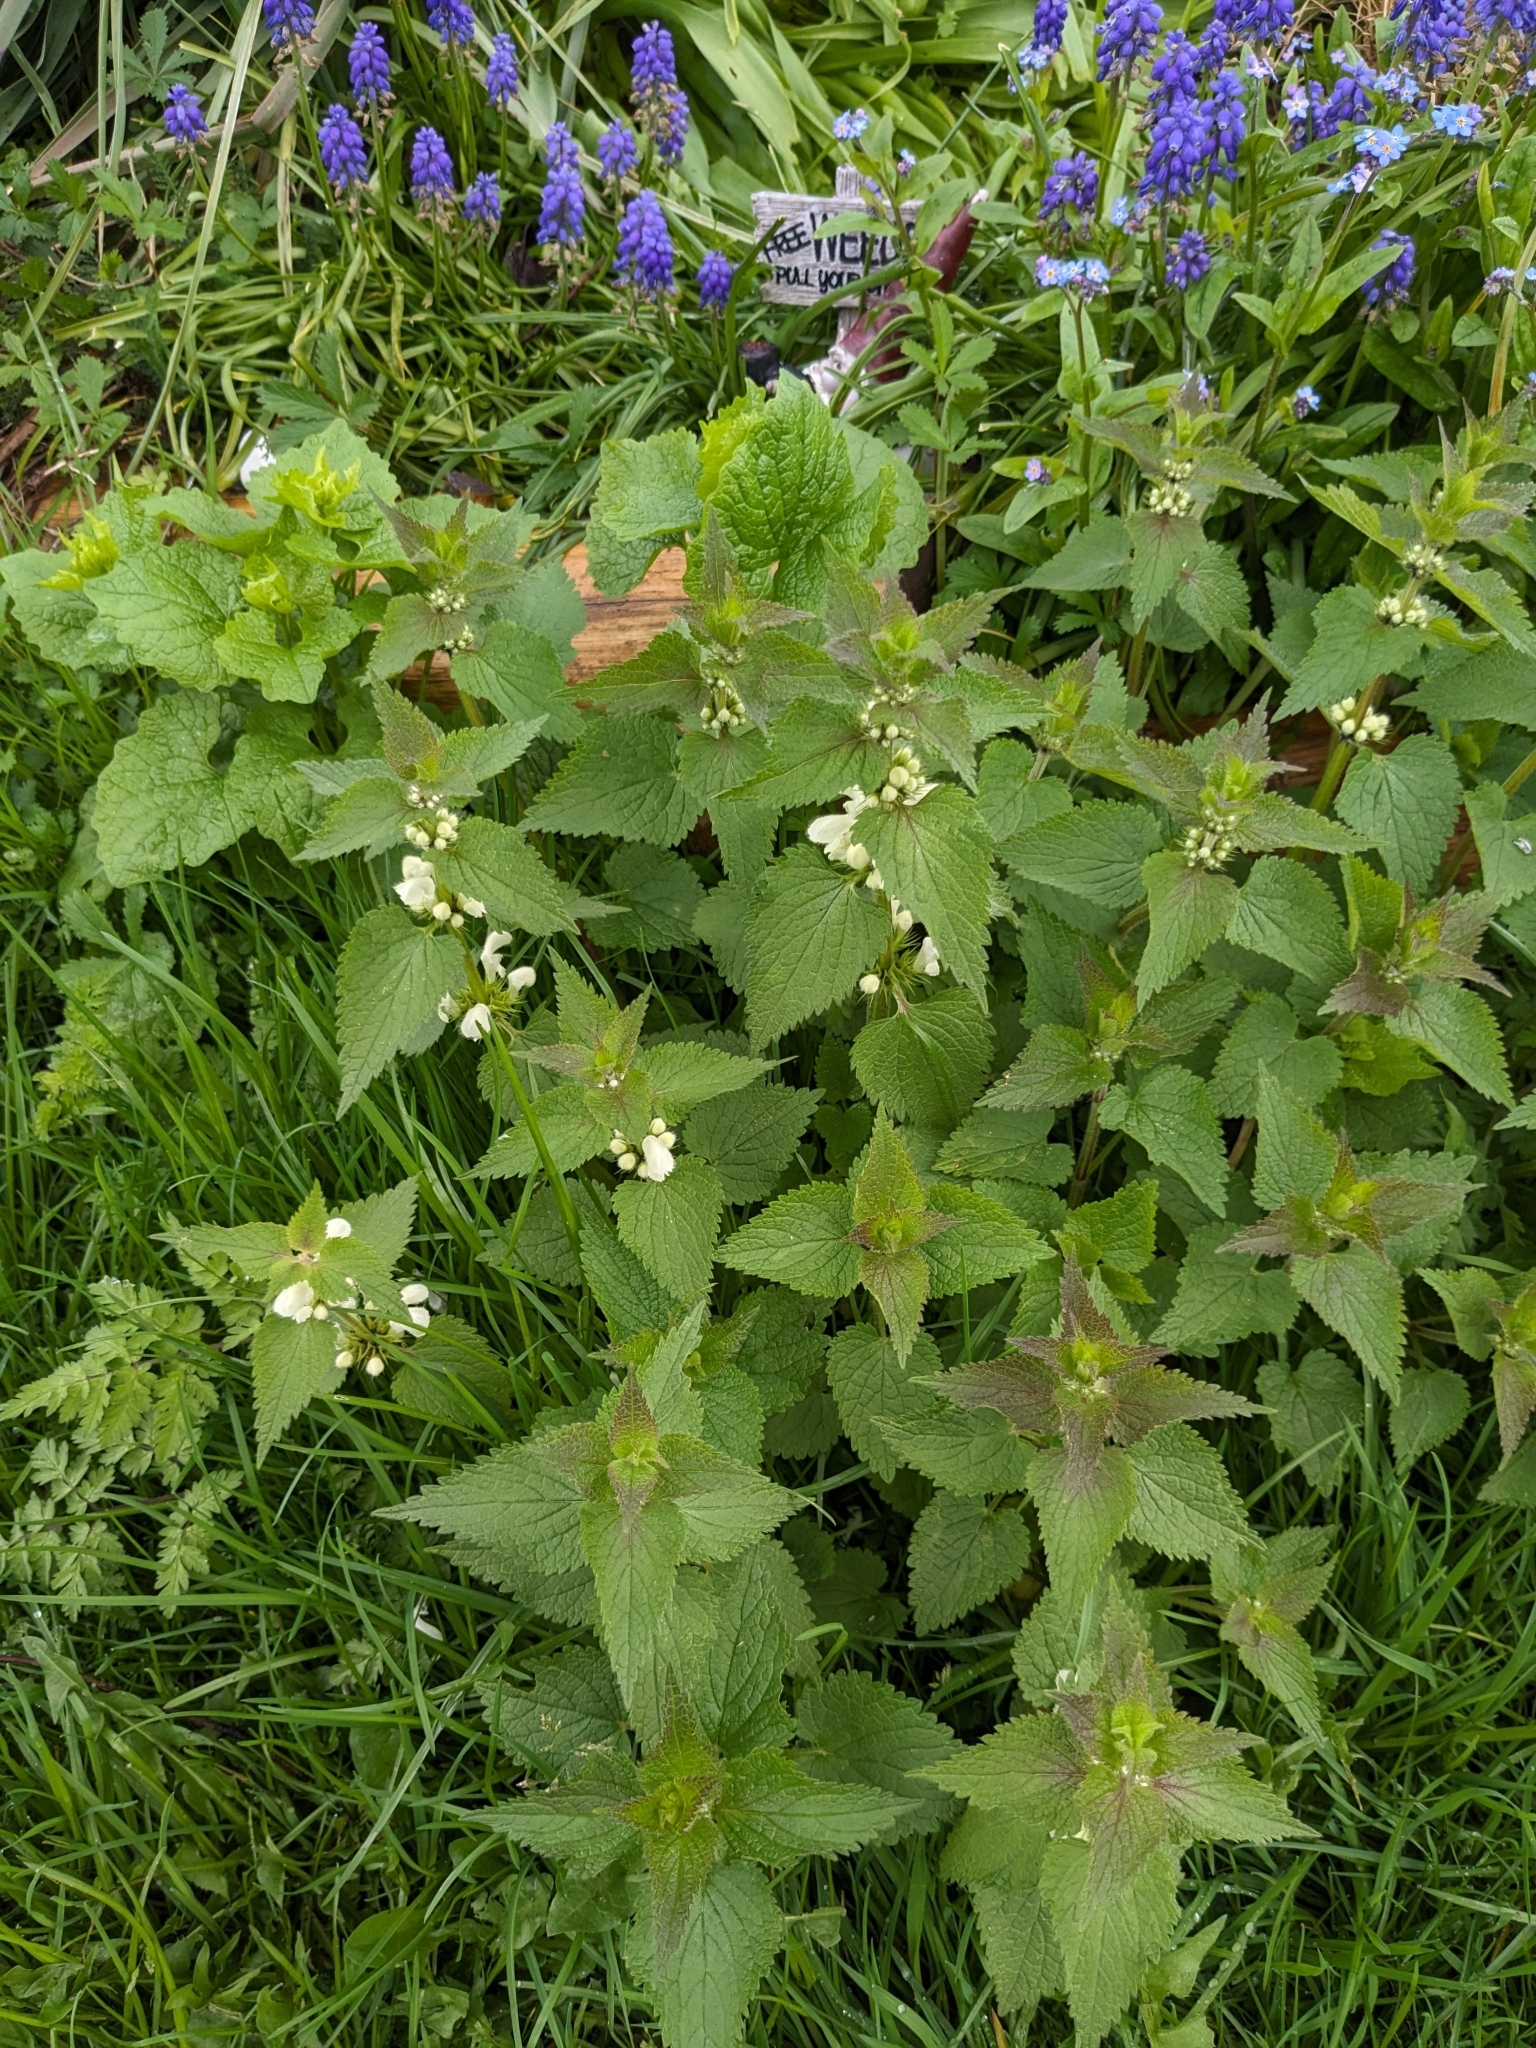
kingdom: Plantae
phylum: Tracheophyta
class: Magnoliopsida
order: Lamiales
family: Lamiaceae
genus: Lamium
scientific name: Lamium album
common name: White dead-nettle
